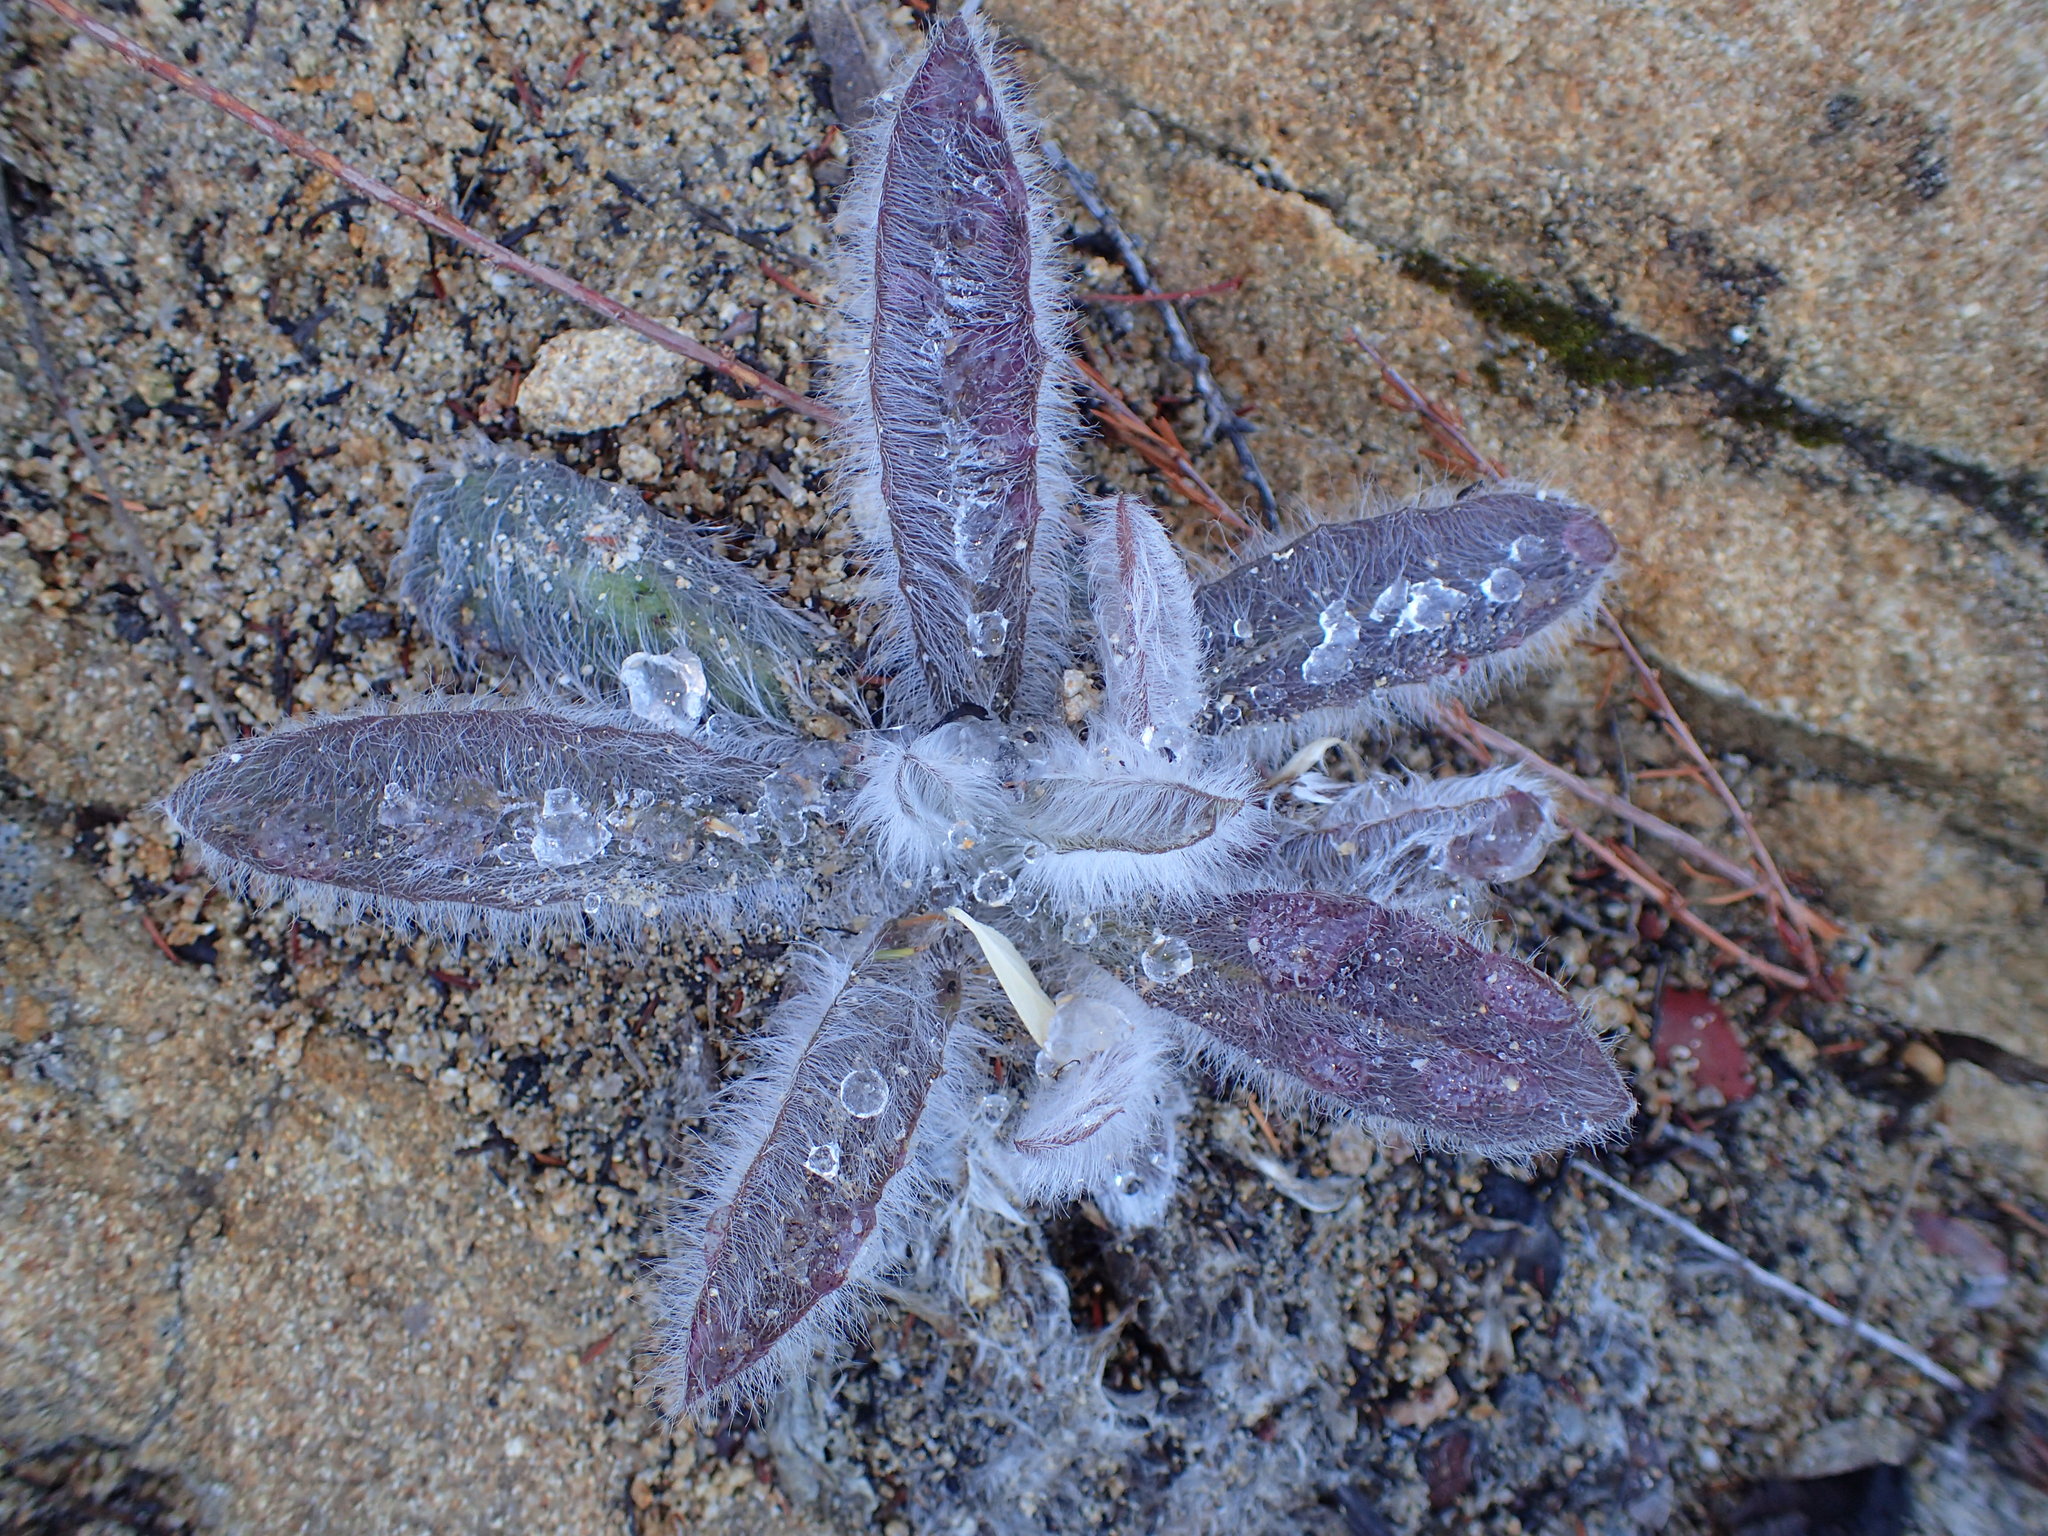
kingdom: Plantae
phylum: Tracheophyta
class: Magnoliopsida
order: Asterales
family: Asteraceae
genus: Hieracium
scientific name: Hieracium argutum
